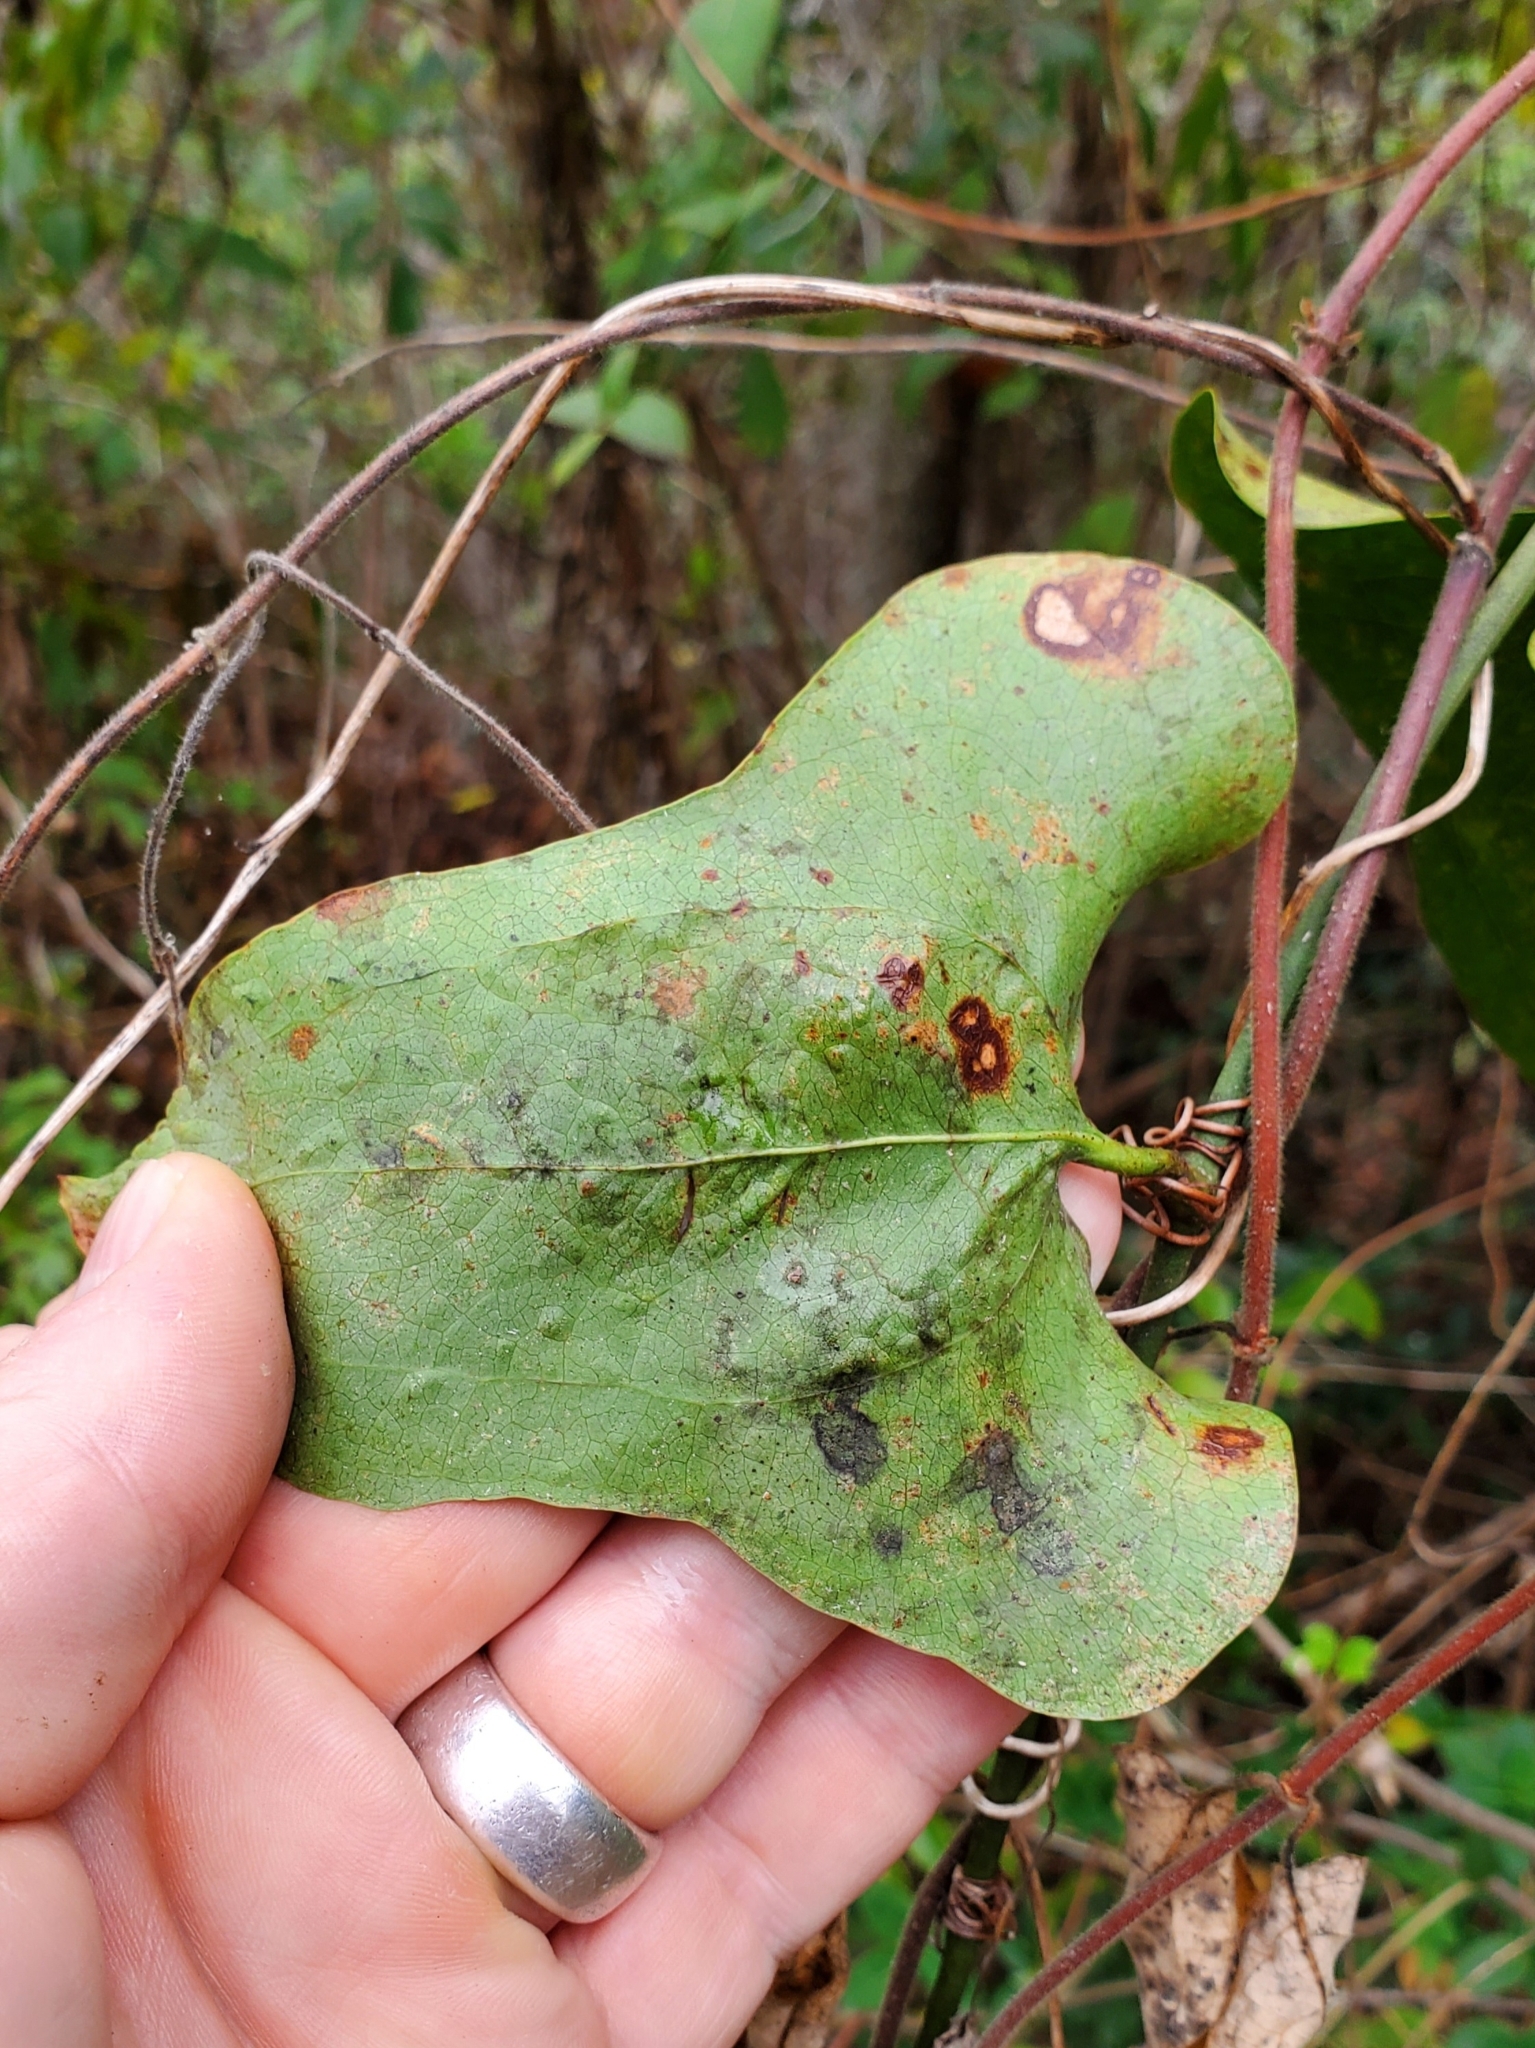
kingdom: Plantae
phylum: Tracheophyta
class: Liliopsida
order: Liliales
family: Smilacaceae
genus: Smilax
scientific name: Smilax bona-nox
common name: Catbrier
